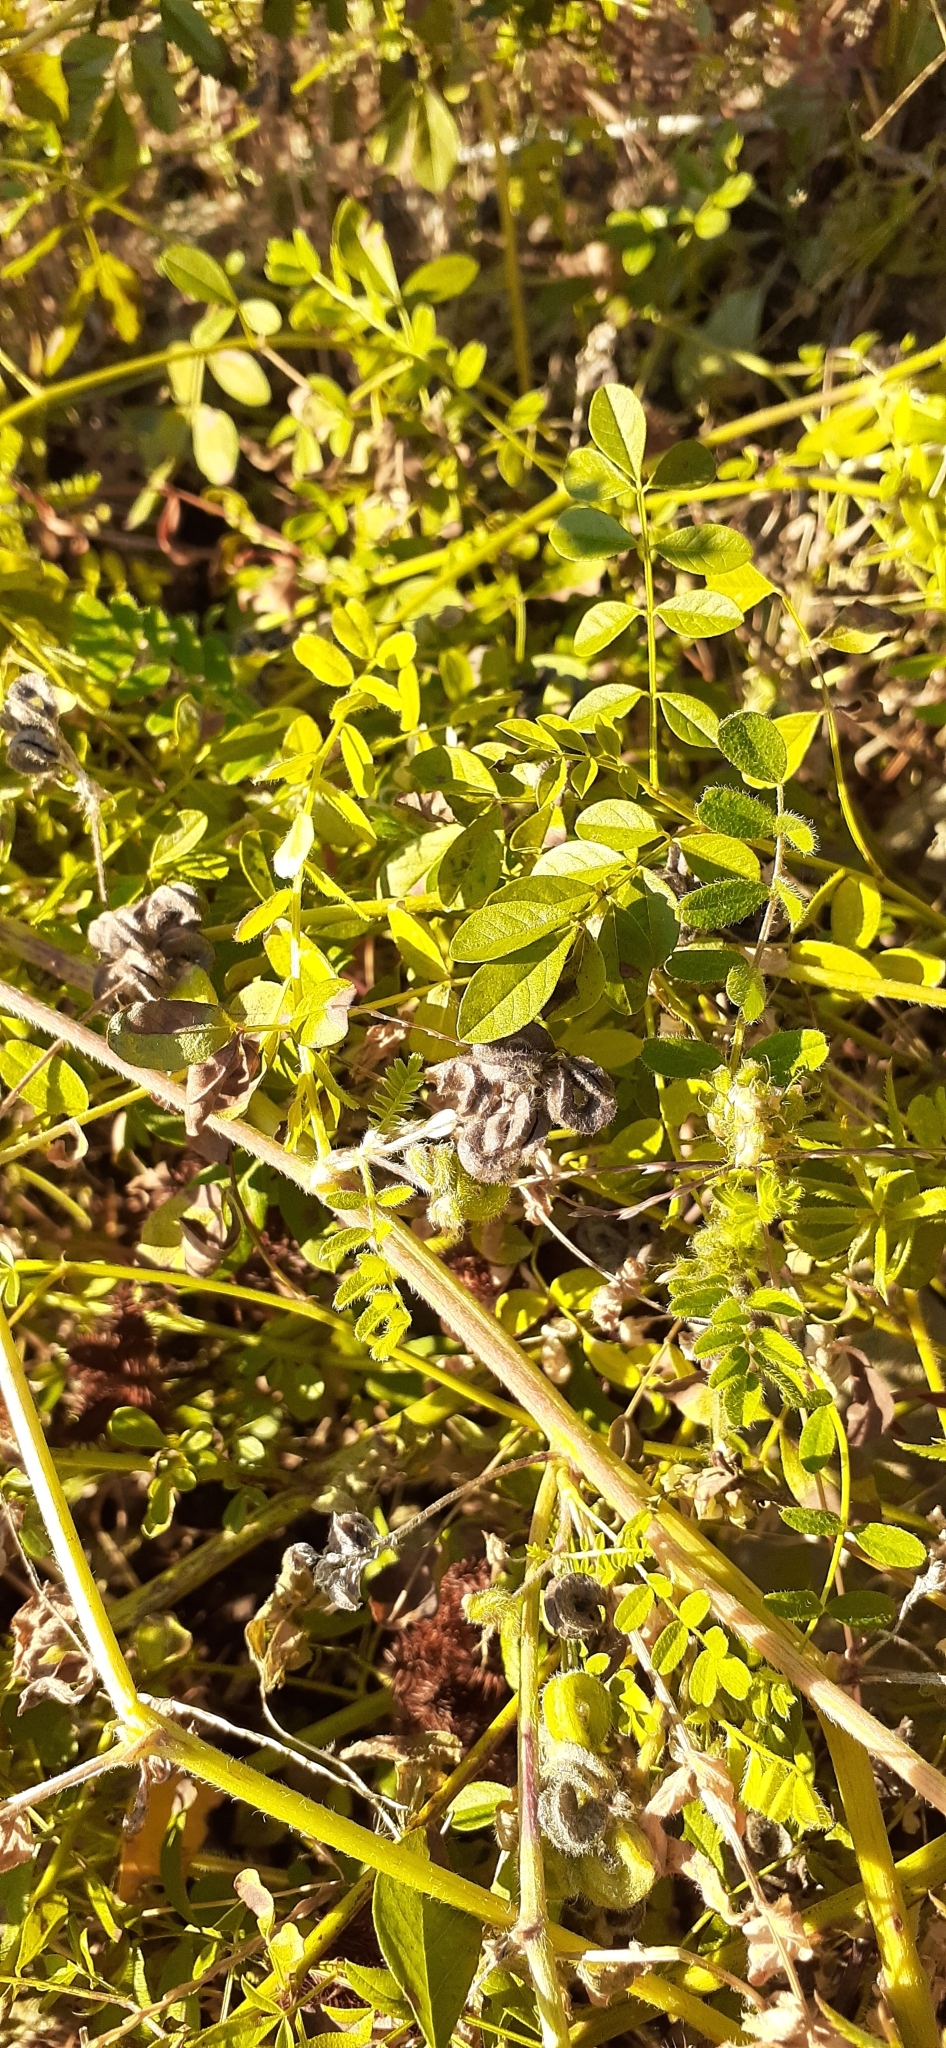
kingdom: Plantae
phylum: Tracheophyta
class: Magnoliopsida
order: Fabales
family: Fabaceae
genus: Astragalus
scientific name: Astragalus contortuplicatus
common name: Hungarian milkvetch
